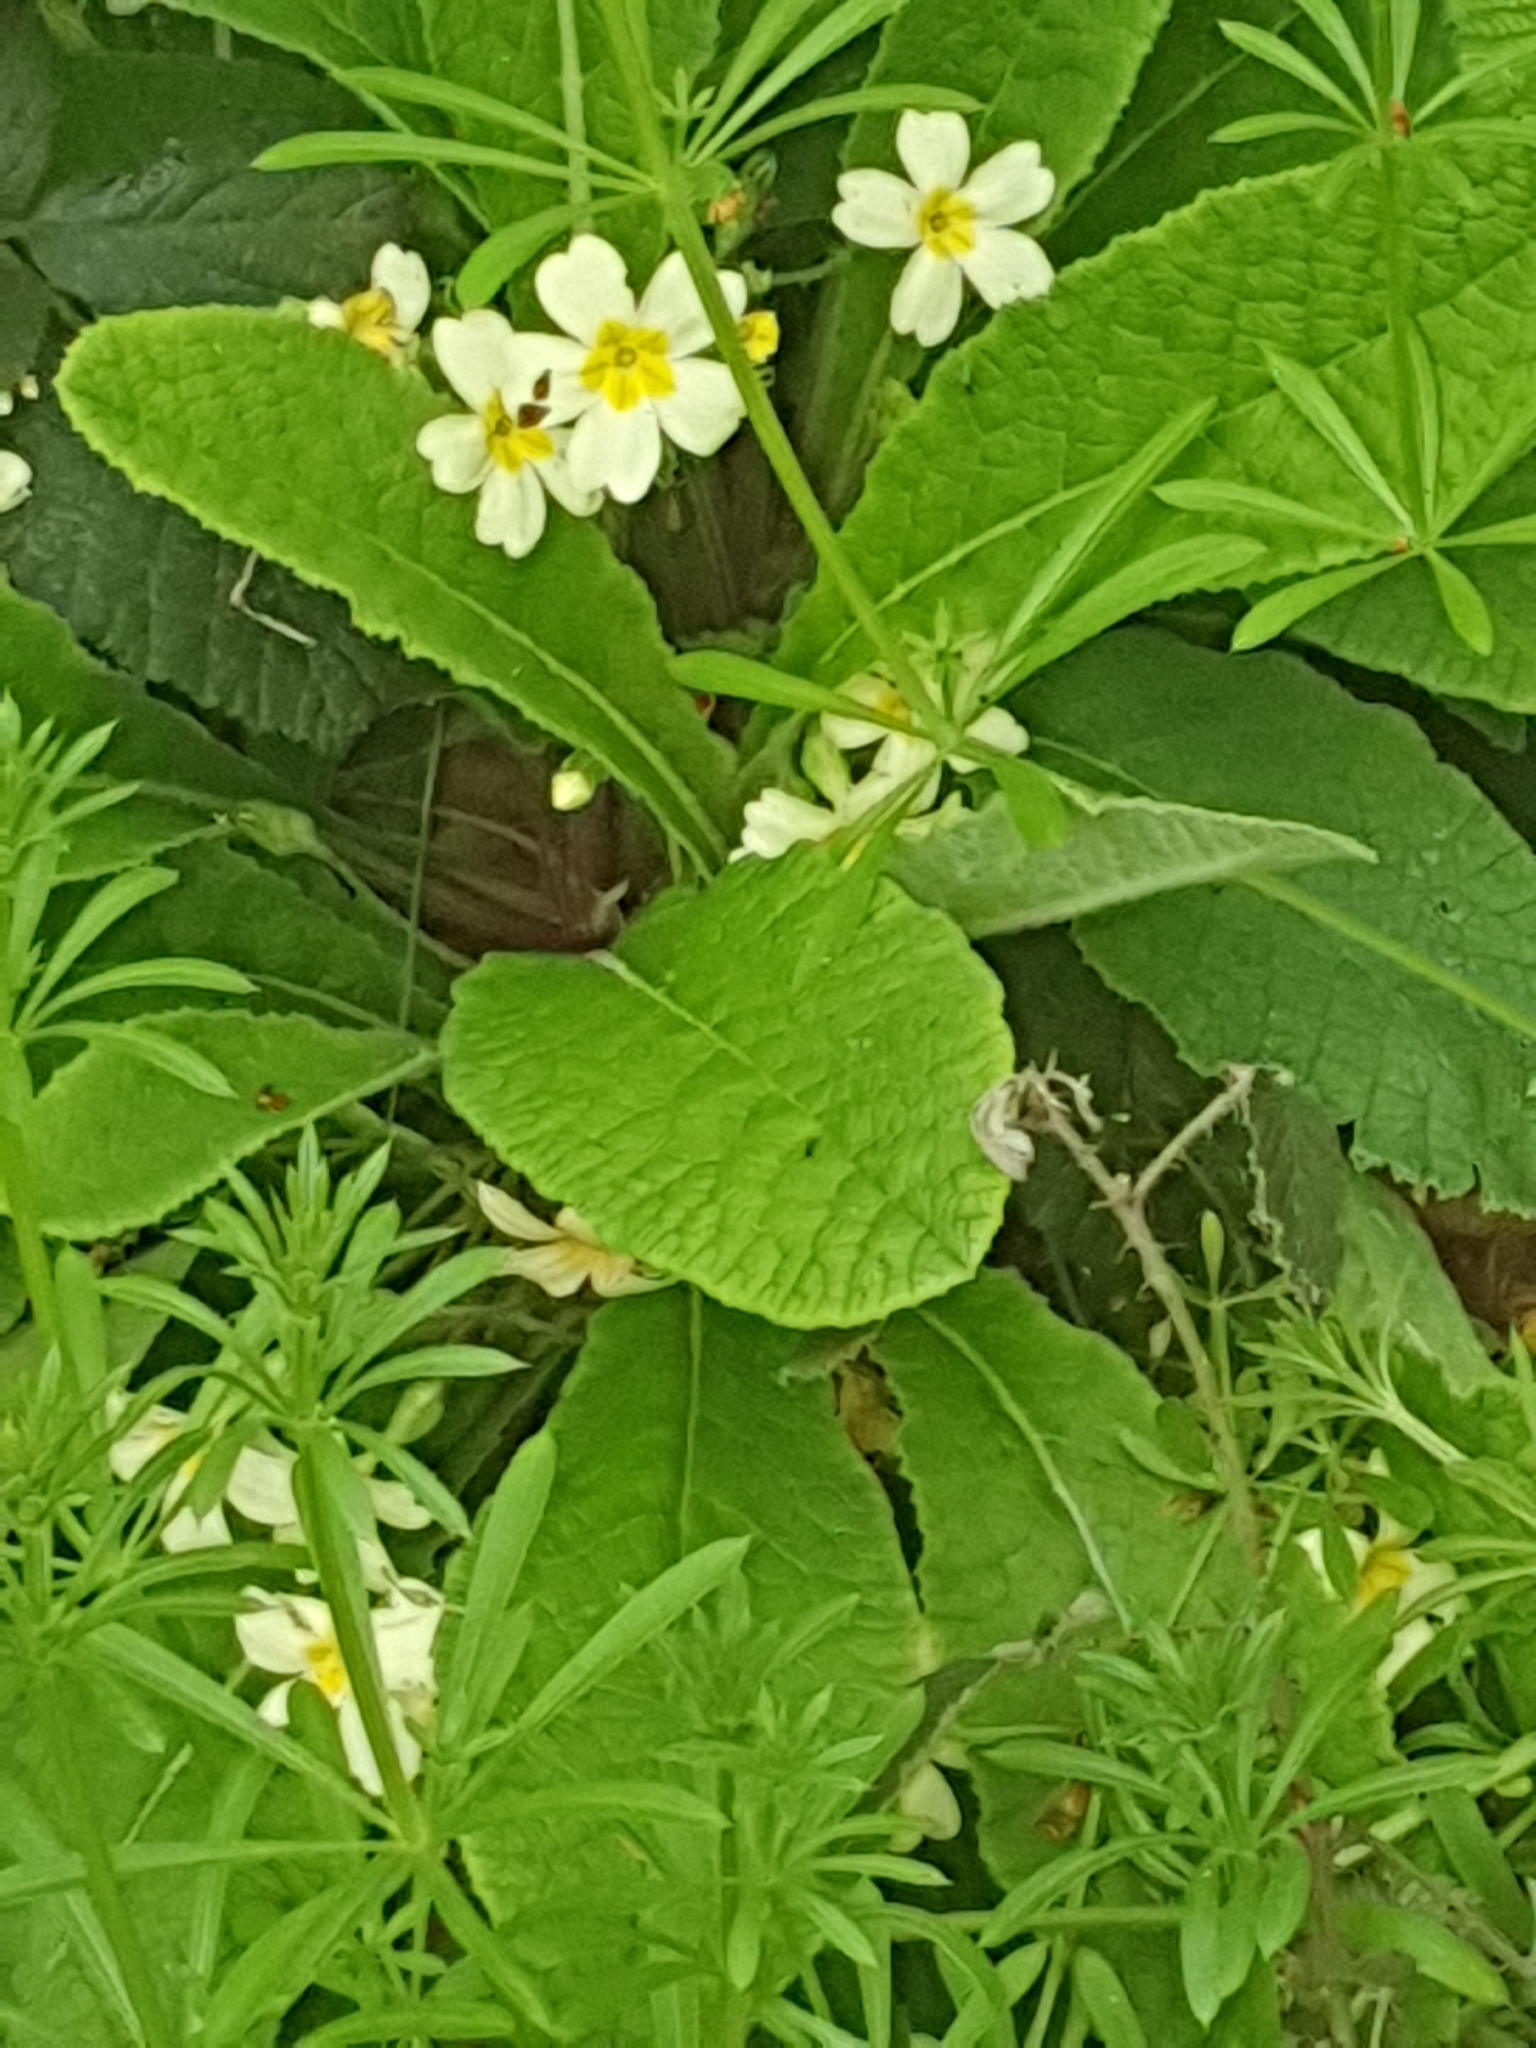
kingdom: Plantae
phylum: Tracheophyta
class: Magnoliopsida
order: Ericales
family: Primulaceae
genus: Primula
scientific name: Primula vulgaris
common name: Primrose
